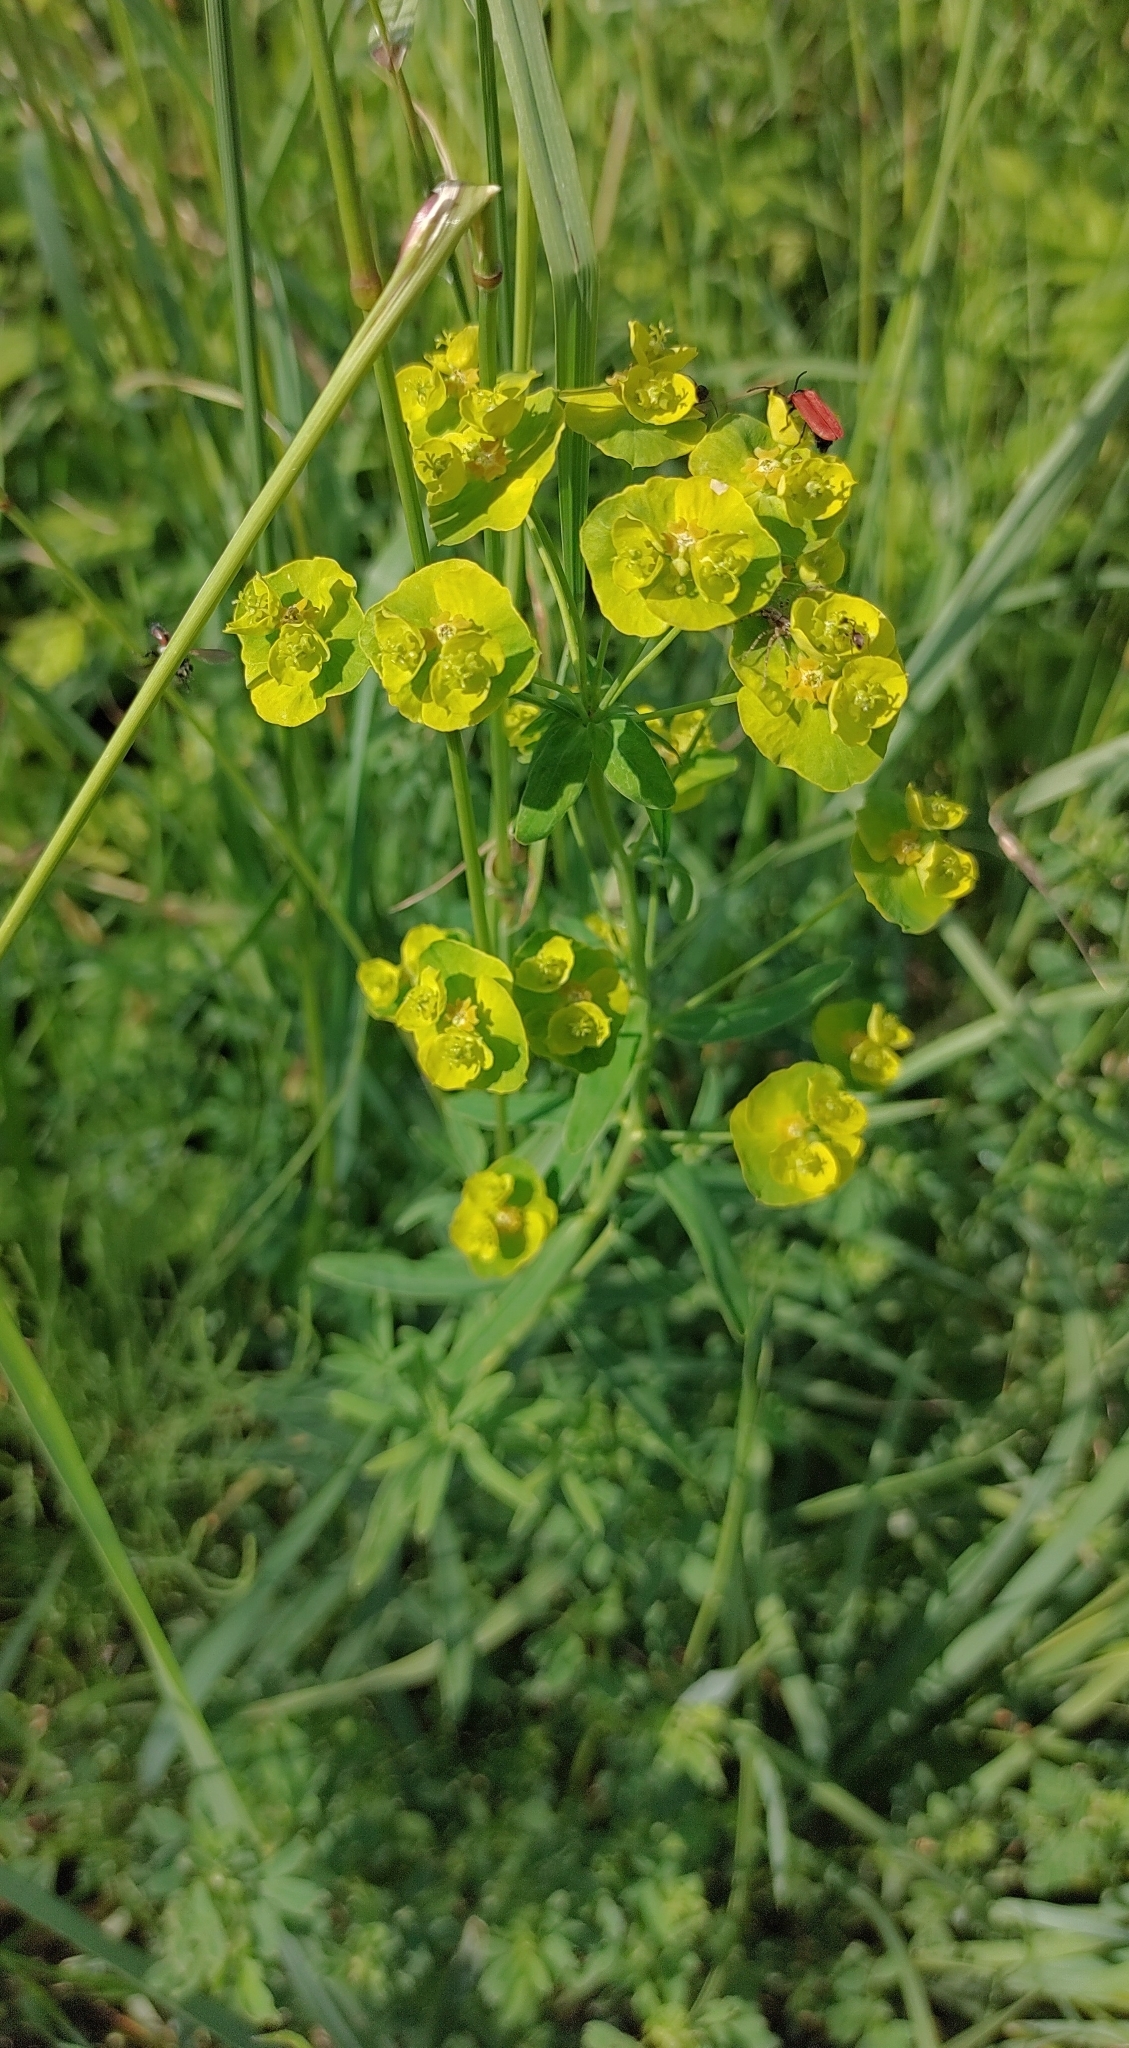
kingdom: Plantae
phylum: Tracheophyta
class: Magnoliopsida
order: Malpighiales
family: Euphorbiaceae
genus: Euphorbia
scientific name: Euphorbia esula
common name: Leafy spurge
